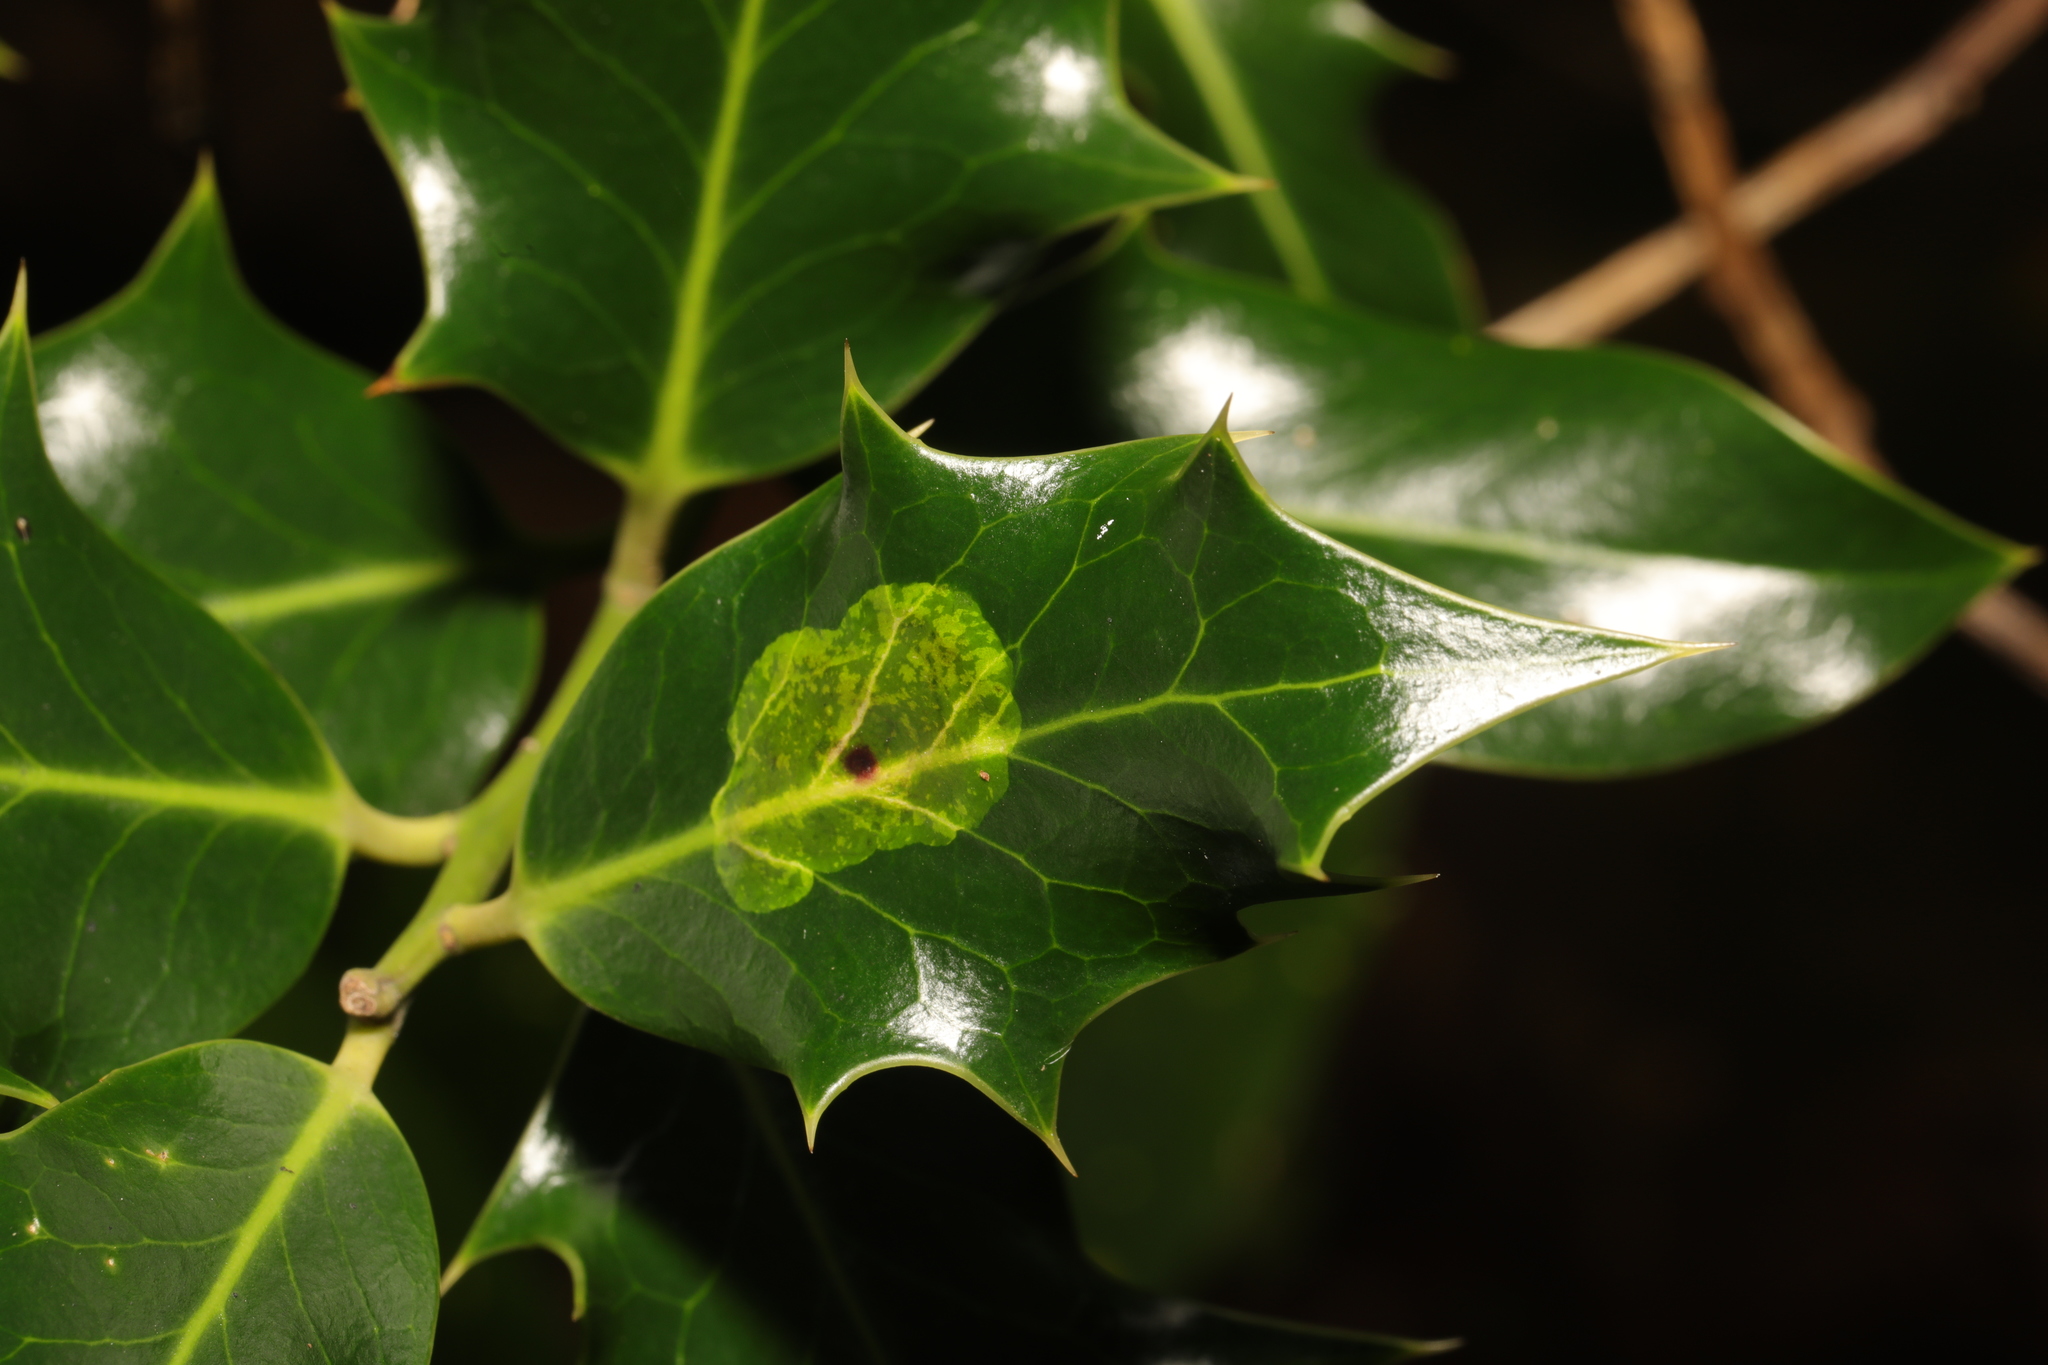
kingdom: Animalia
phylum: Arthropoda
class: Insecta
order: Diptera
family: Agromyzidae
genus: Phytomyza
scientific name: Phytomyza ilicis
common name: Holly leafminer
